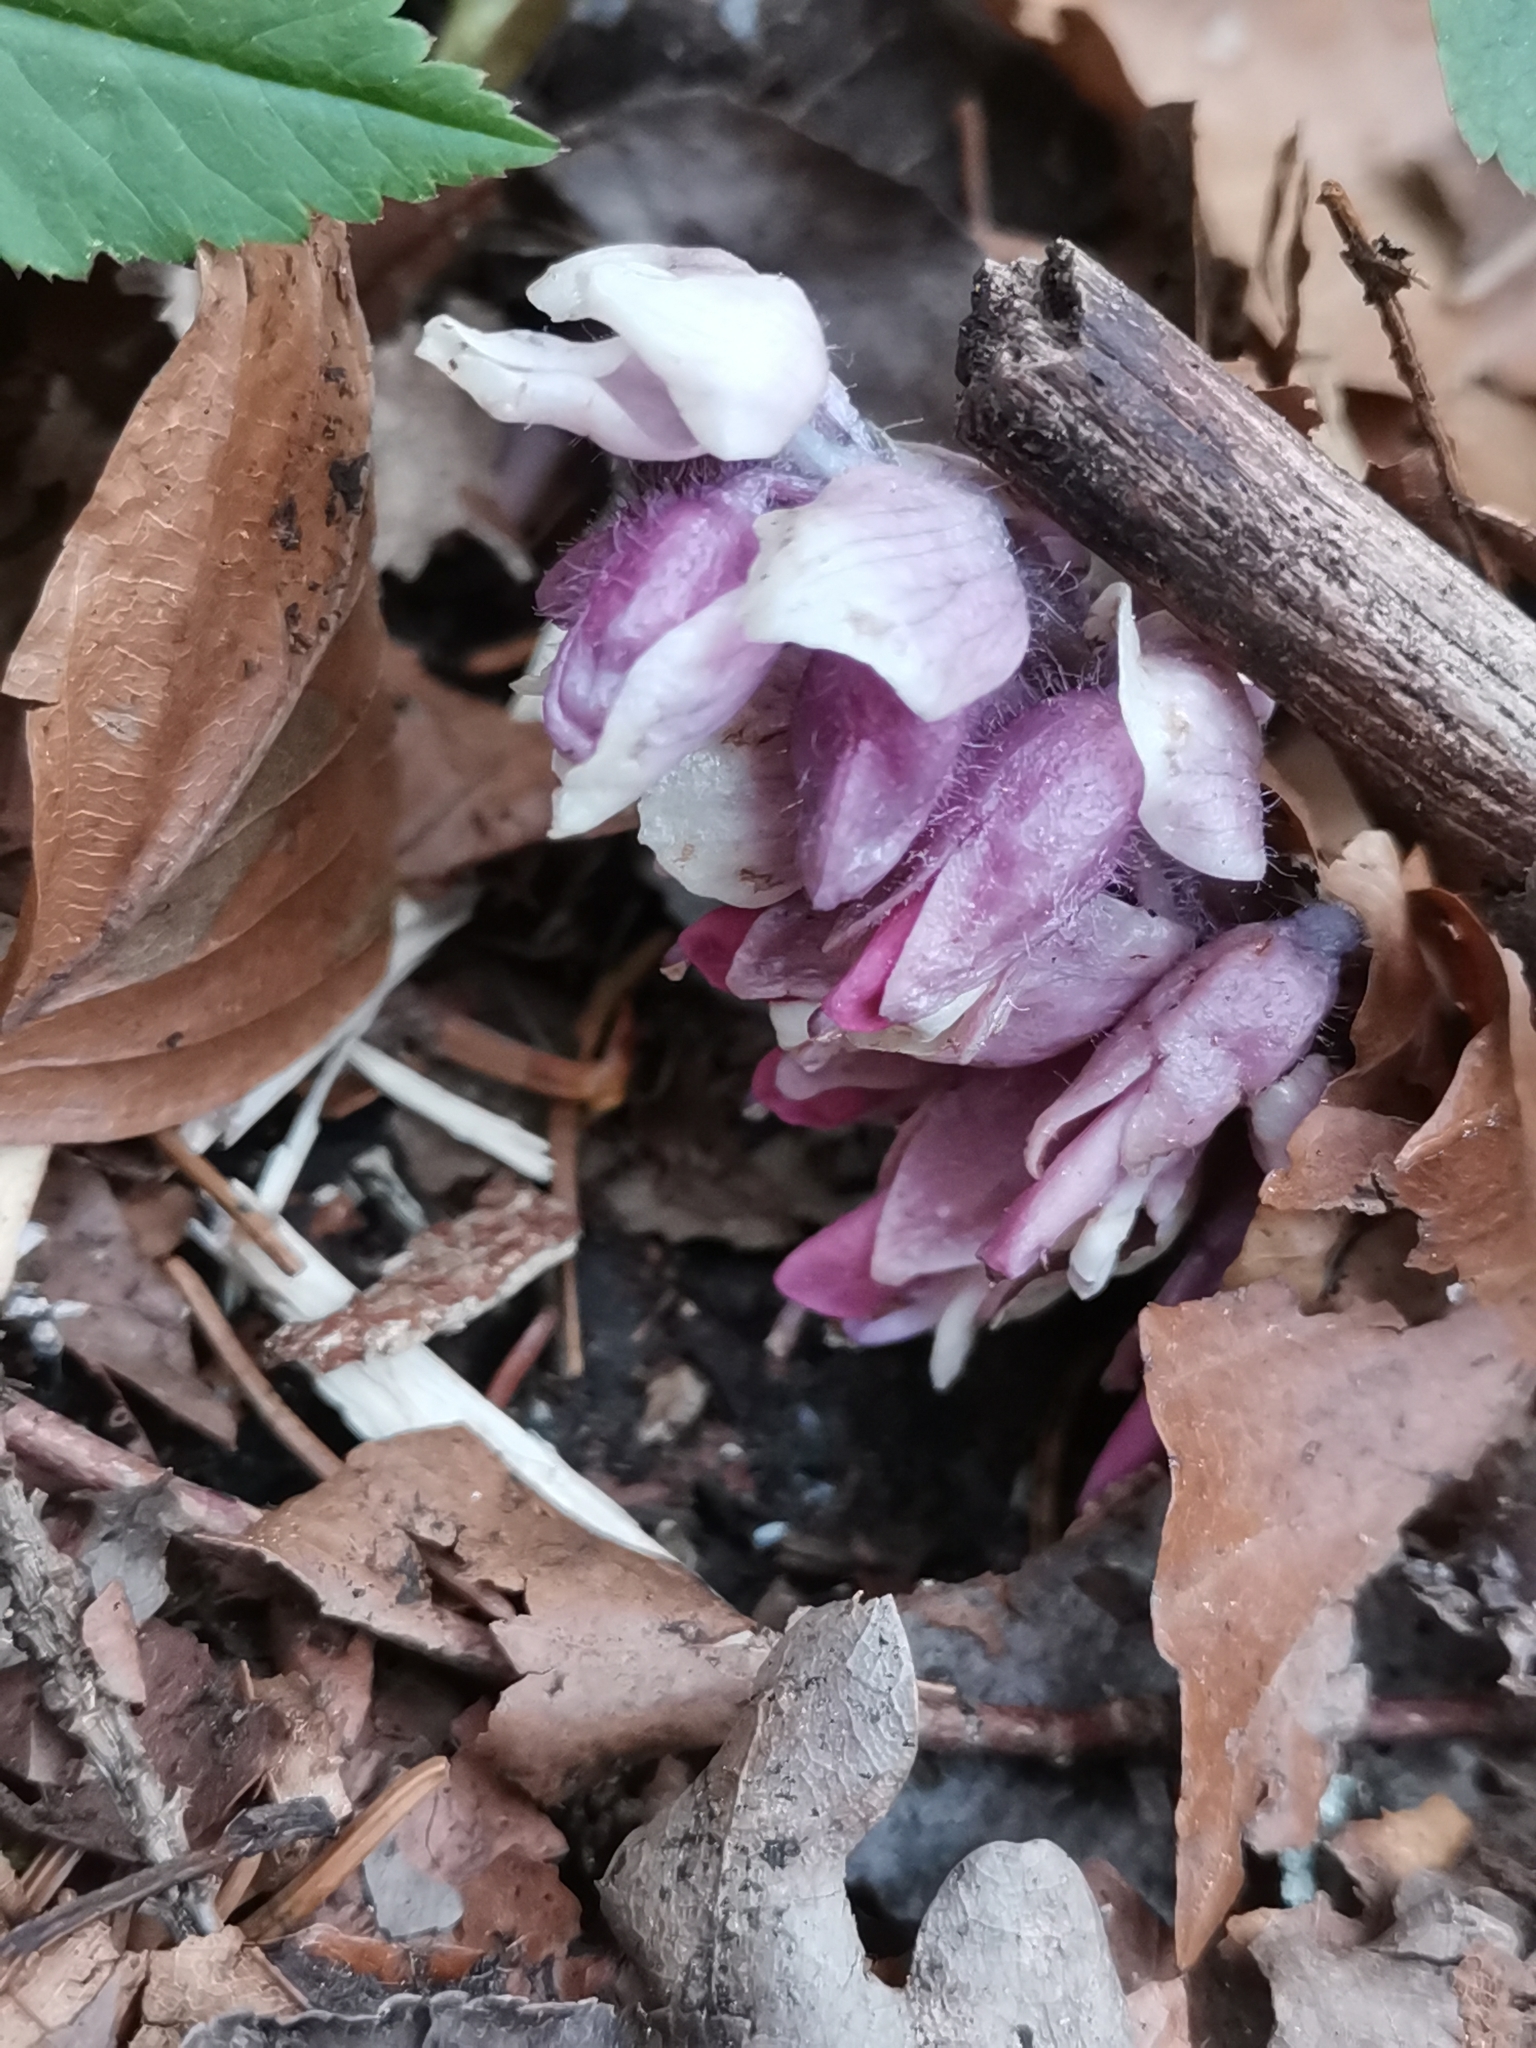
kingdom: Plantae
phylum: Tracheophyta
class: Magnoliopsida
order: Lamiales
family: Orobanchaceae
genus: Lathraea
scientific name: Lathraea squamaria
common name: Toothwort
